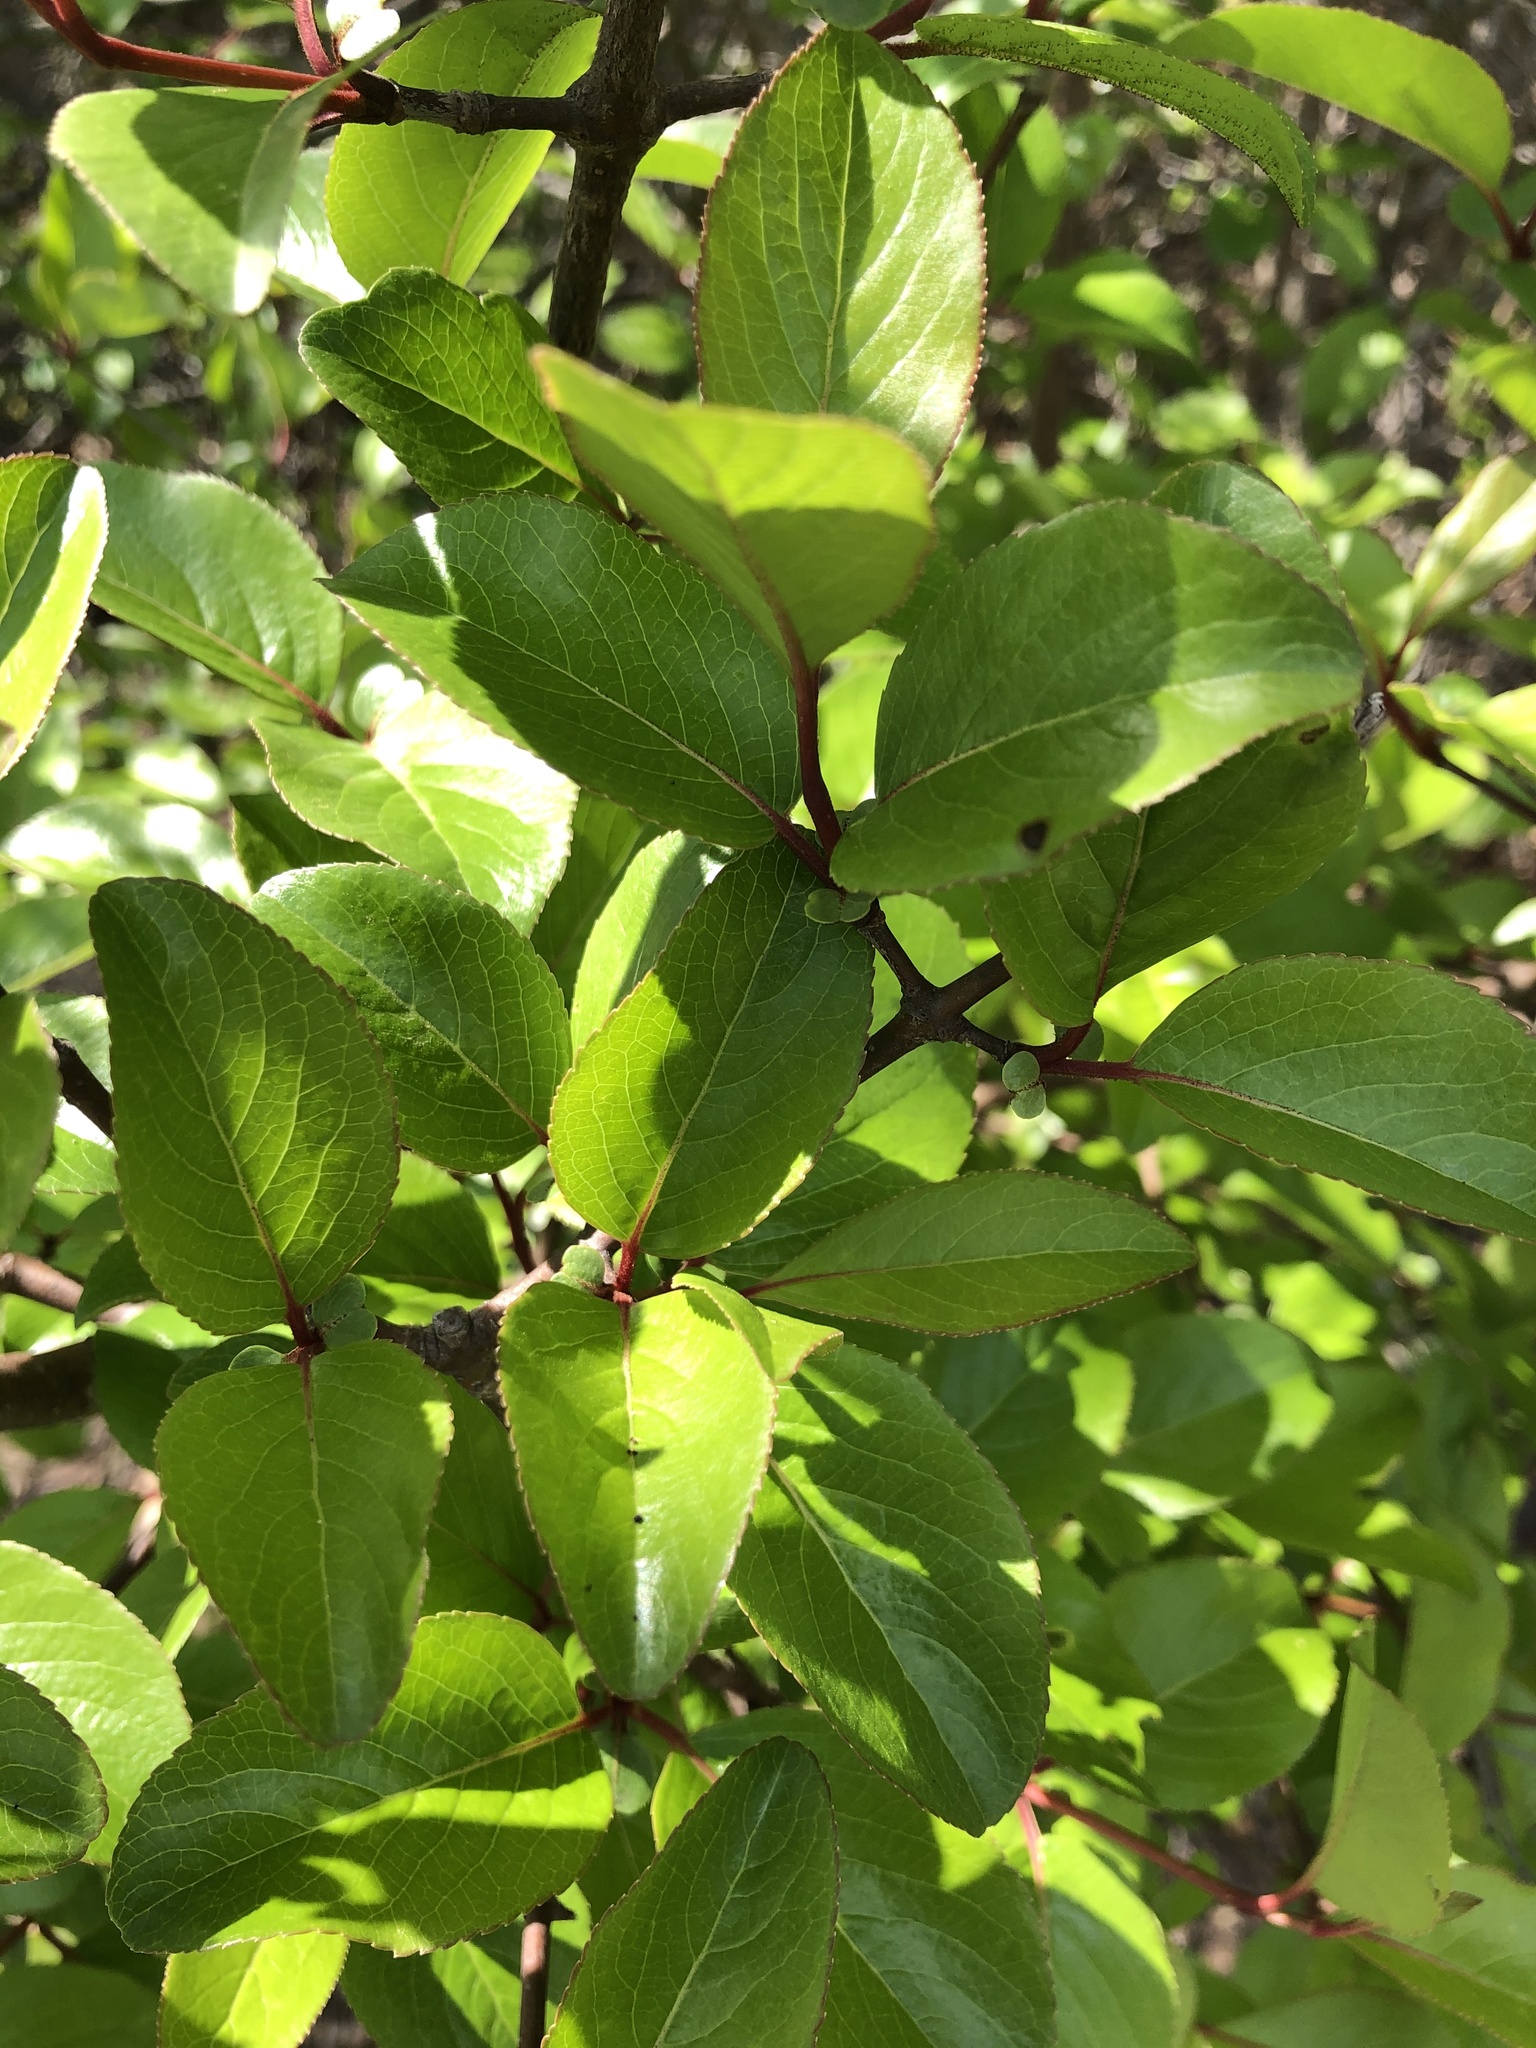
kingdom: Plantae
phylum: Tracheophyta
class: Magnoliopsida
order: Dipsacales
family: Viburnaceae
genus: Viburnum
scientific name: Viburnum rufidulum
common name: Blue haw
